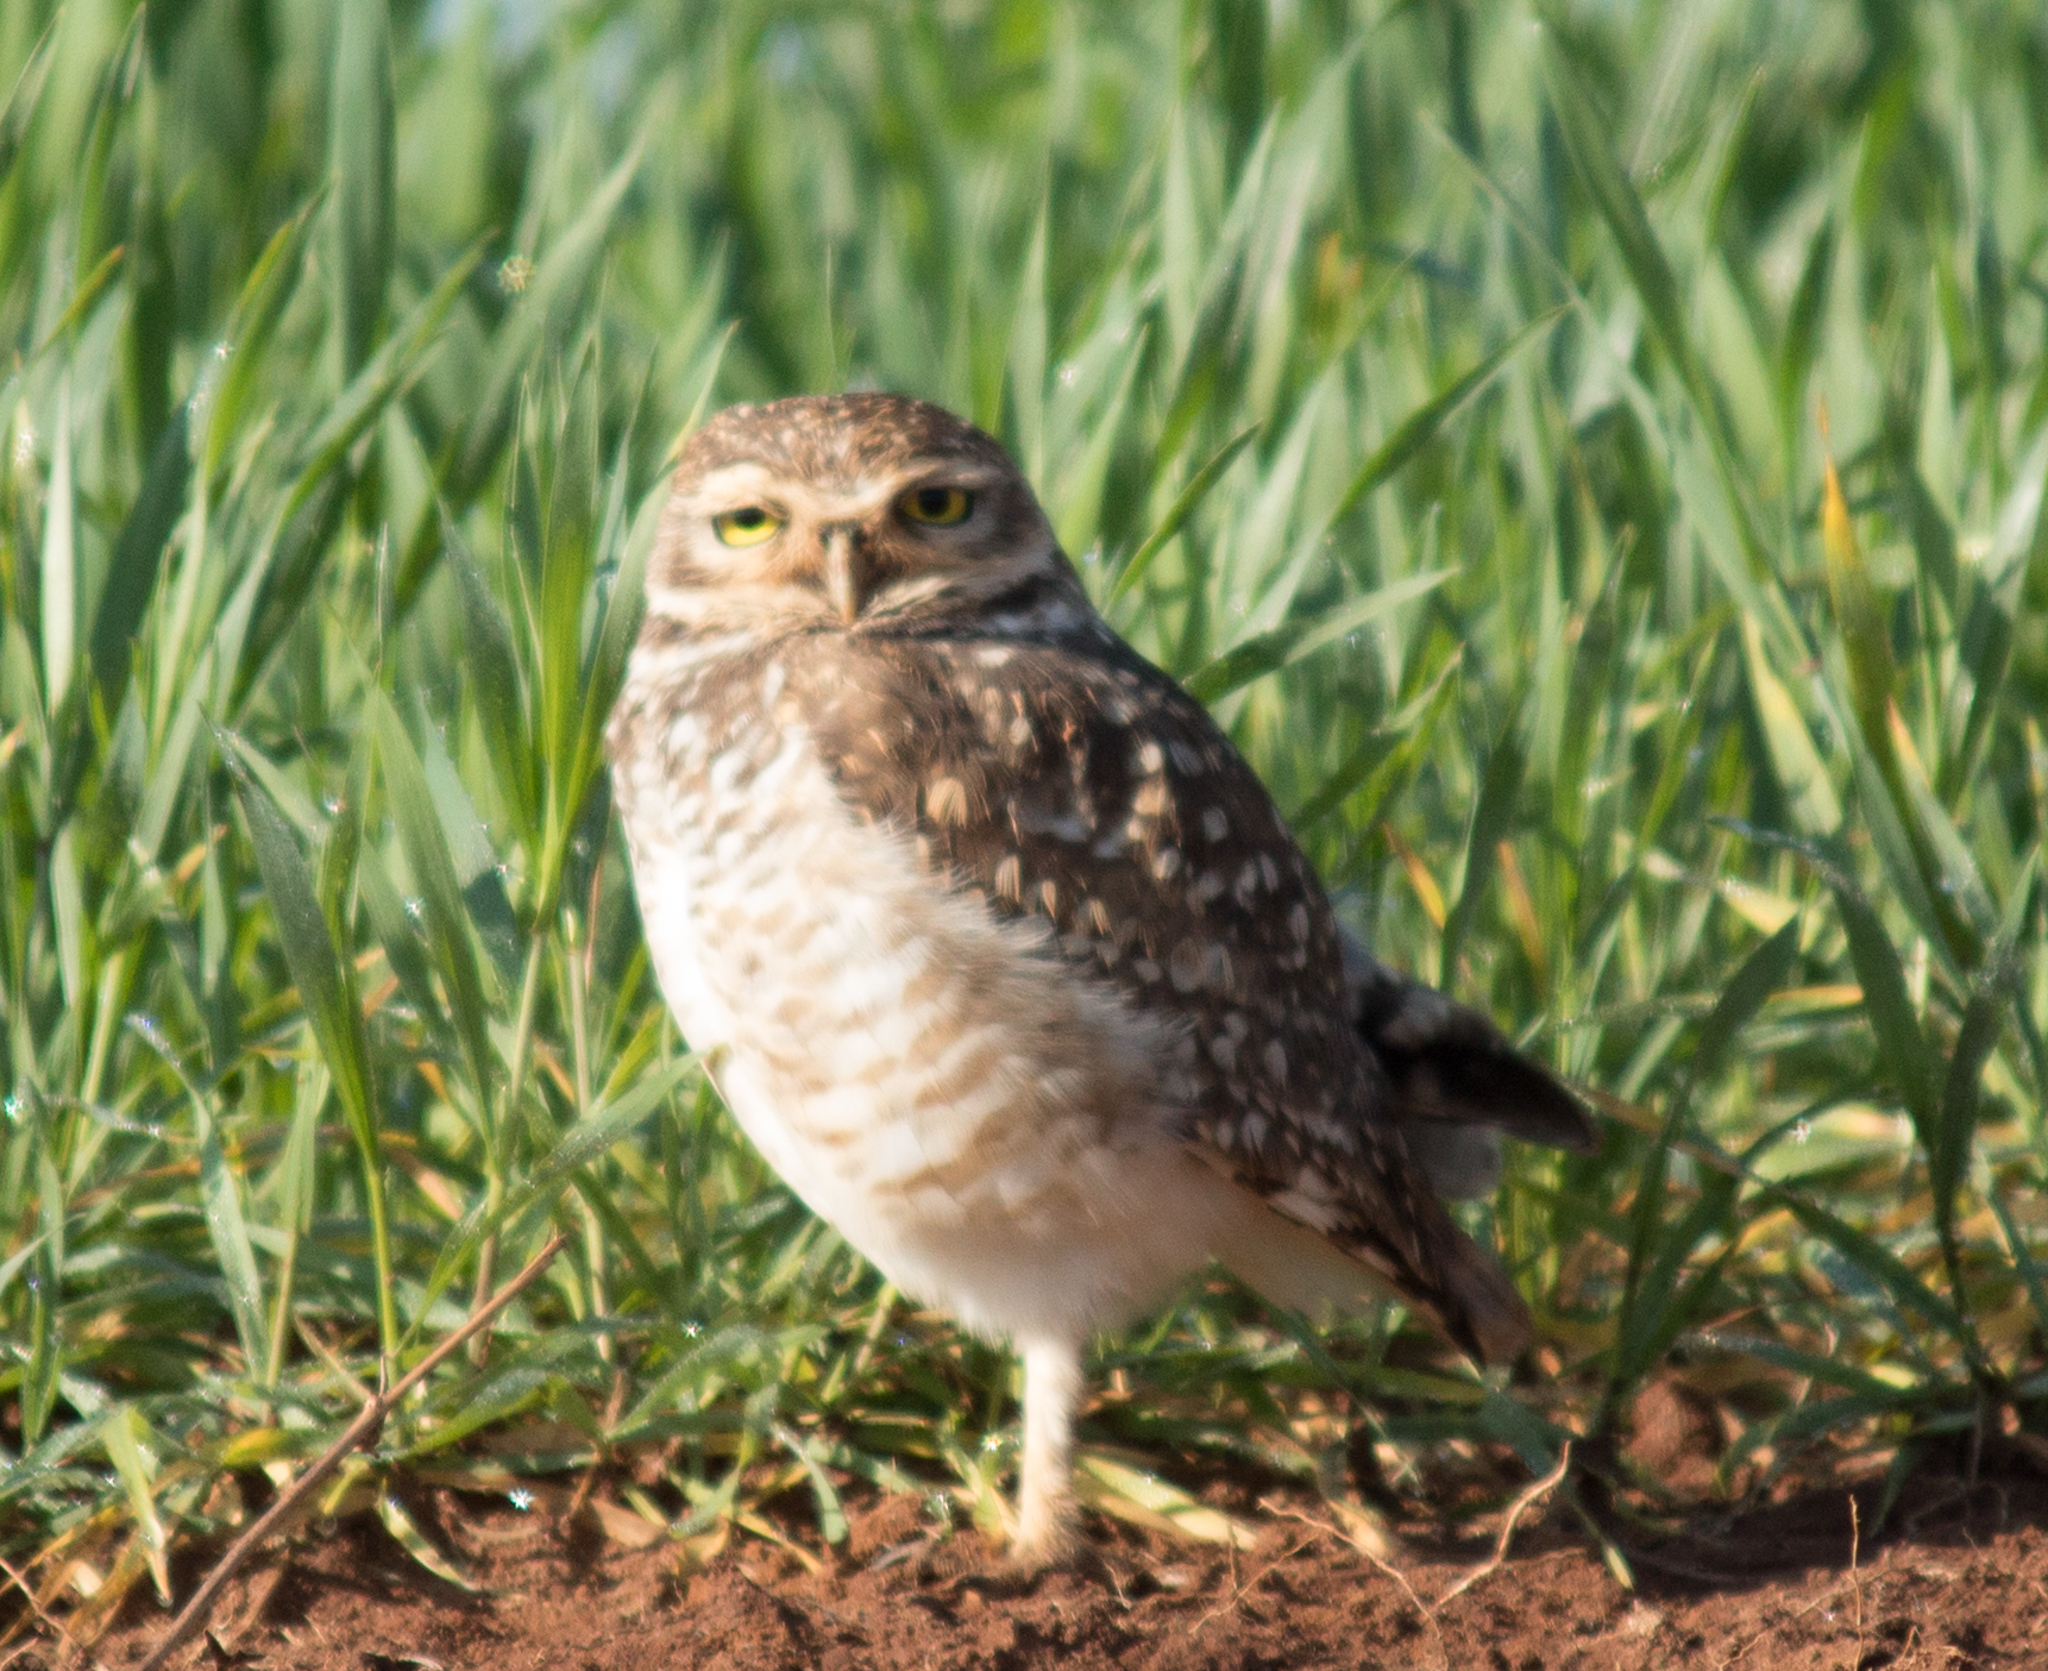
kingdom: Animalia
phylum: Chordata
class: Aves
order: Strigiformes
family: Strigidae
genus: Athene
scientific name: Athene cunicularia
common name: Burrowing owl
